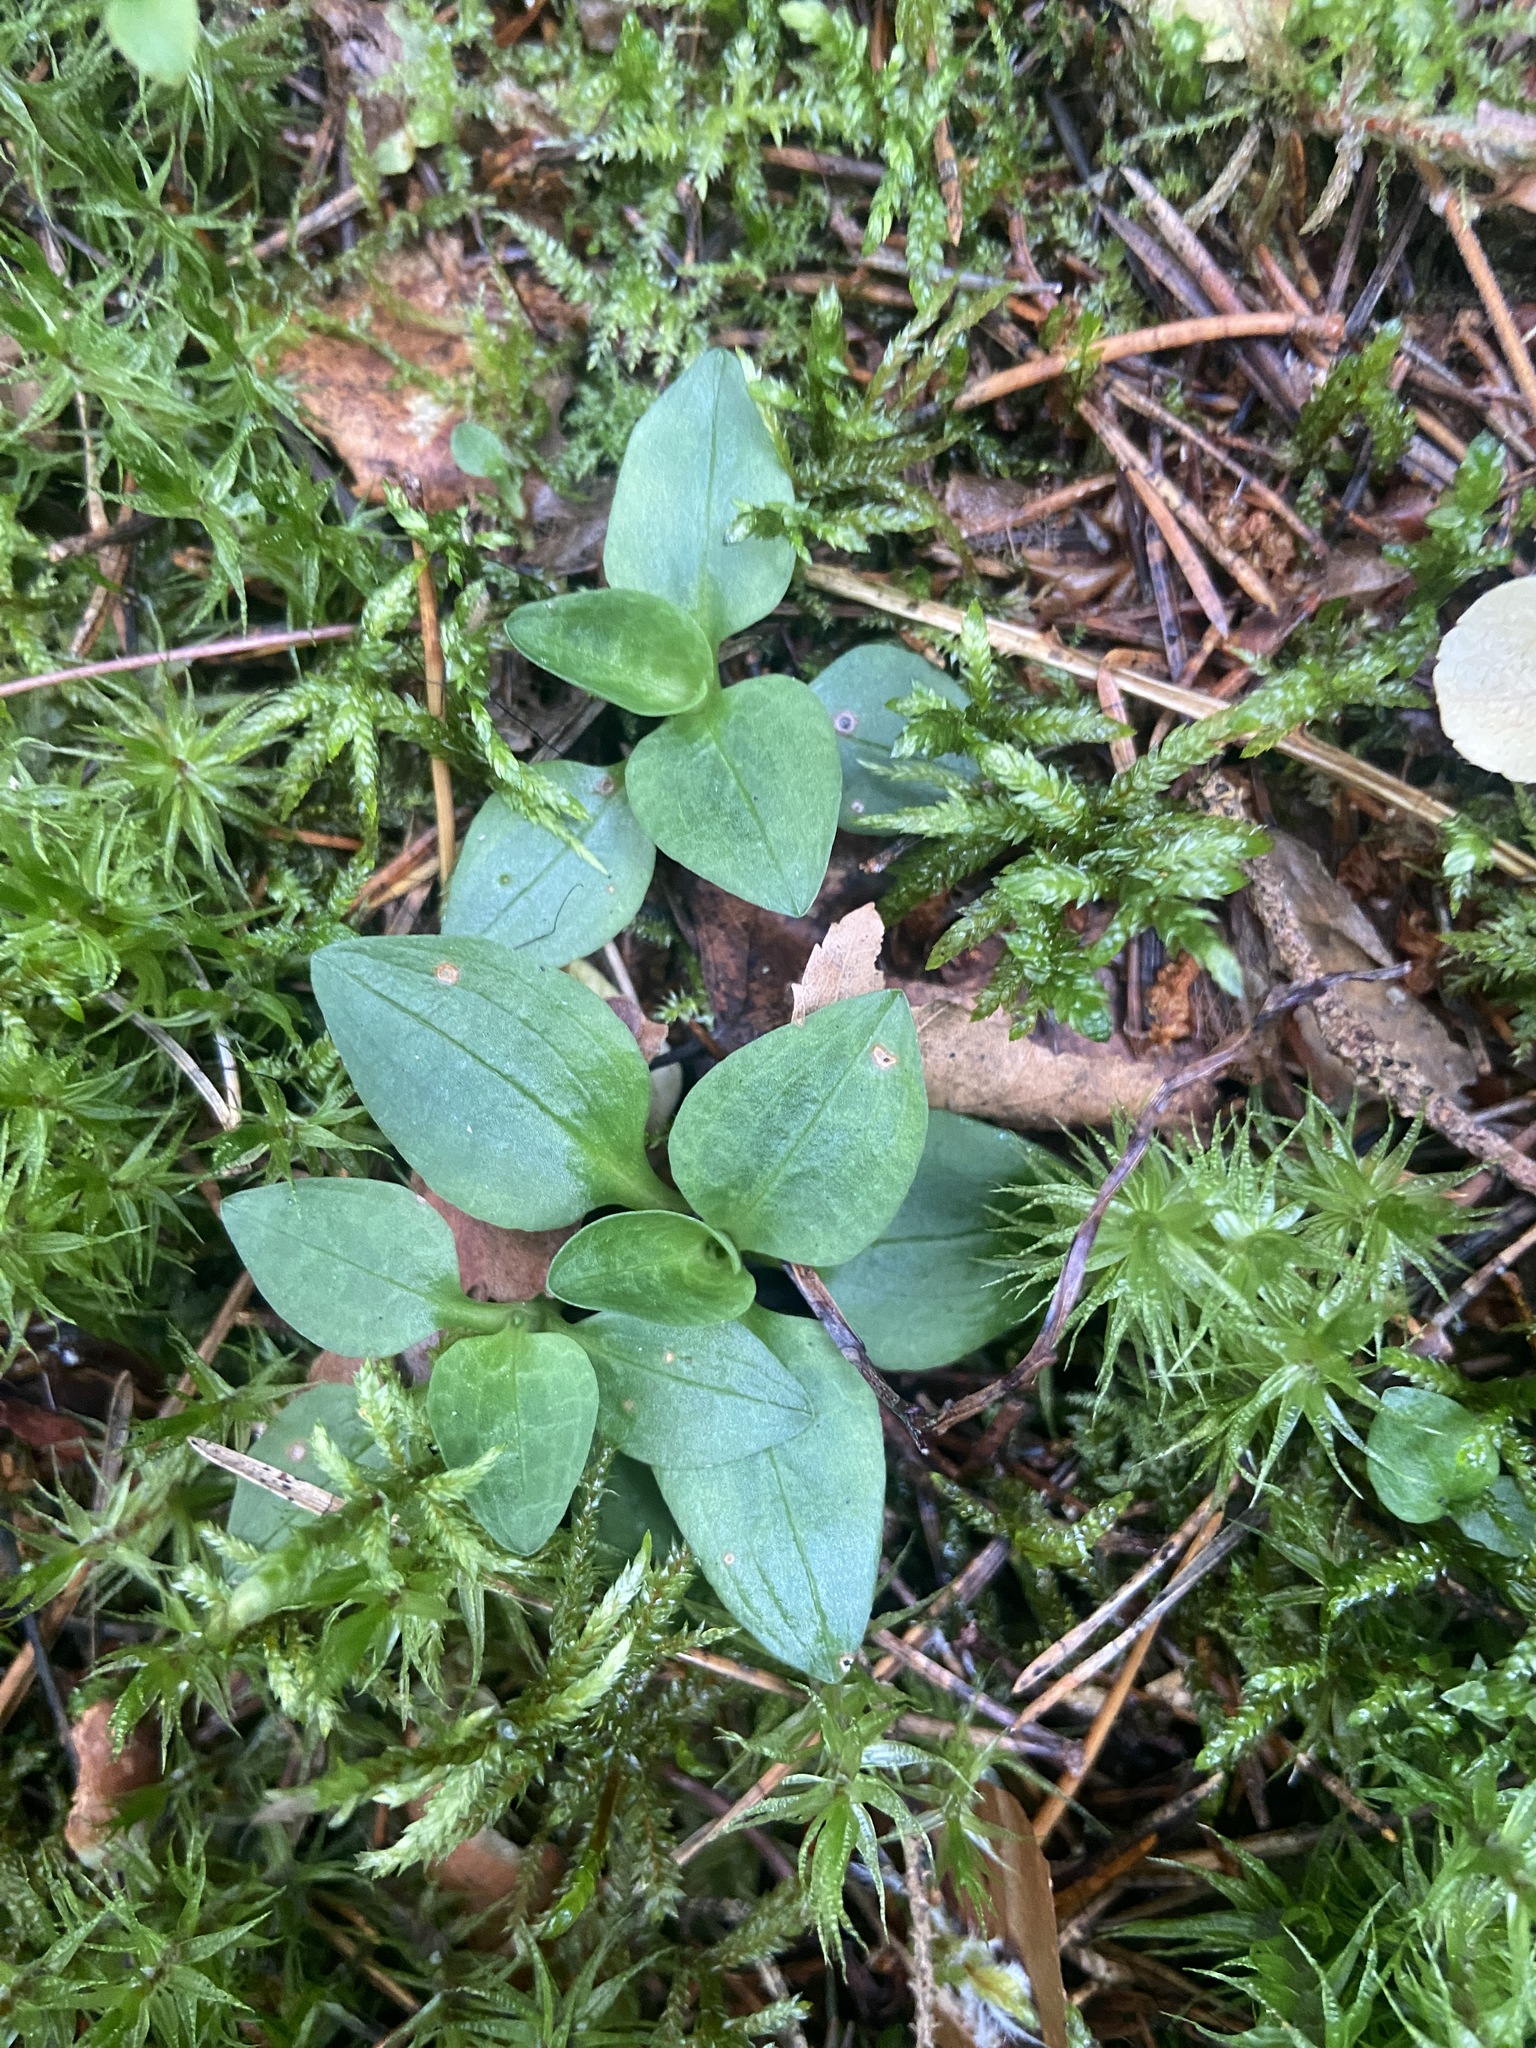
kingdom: Plantae
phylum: Tracheophyta
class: Liliopsida
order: Asparagales
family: Orchidaceae
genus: Goodyera
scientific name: Goodyera repens
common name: Creeping lady's-tresses
